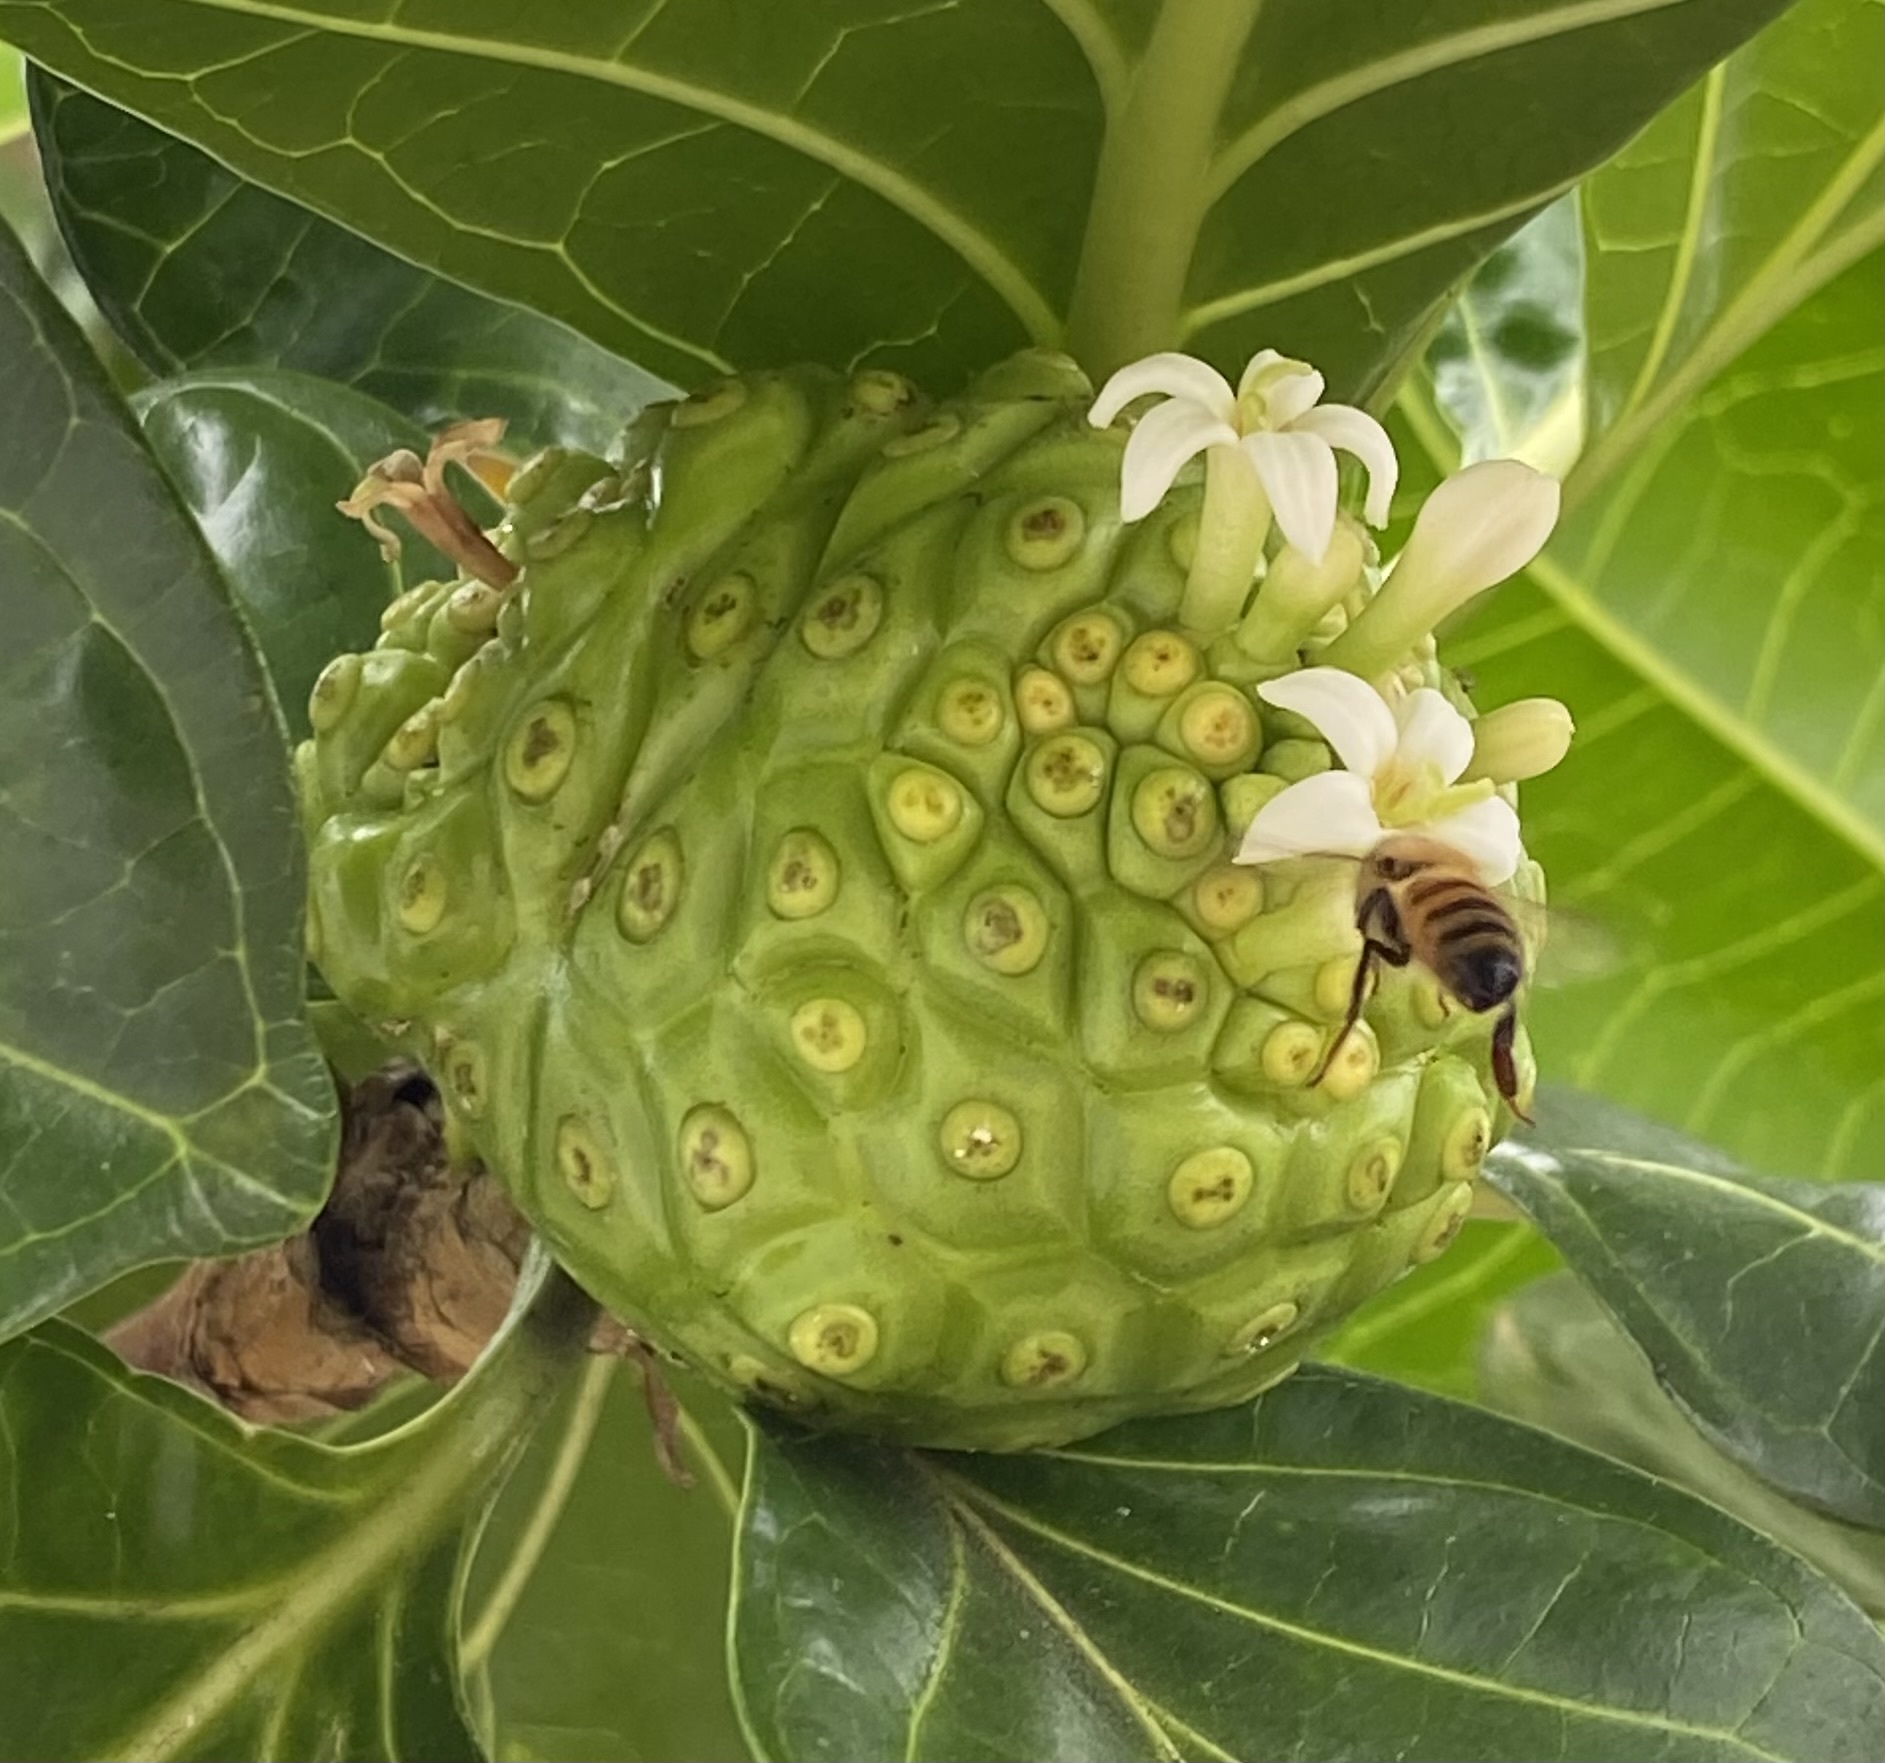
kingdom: Animalia
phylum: Arthropoda
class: Insecta
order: Hymenoptera
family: Apidae
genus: Apis
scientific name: Apis mellifera
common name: Honey bee
